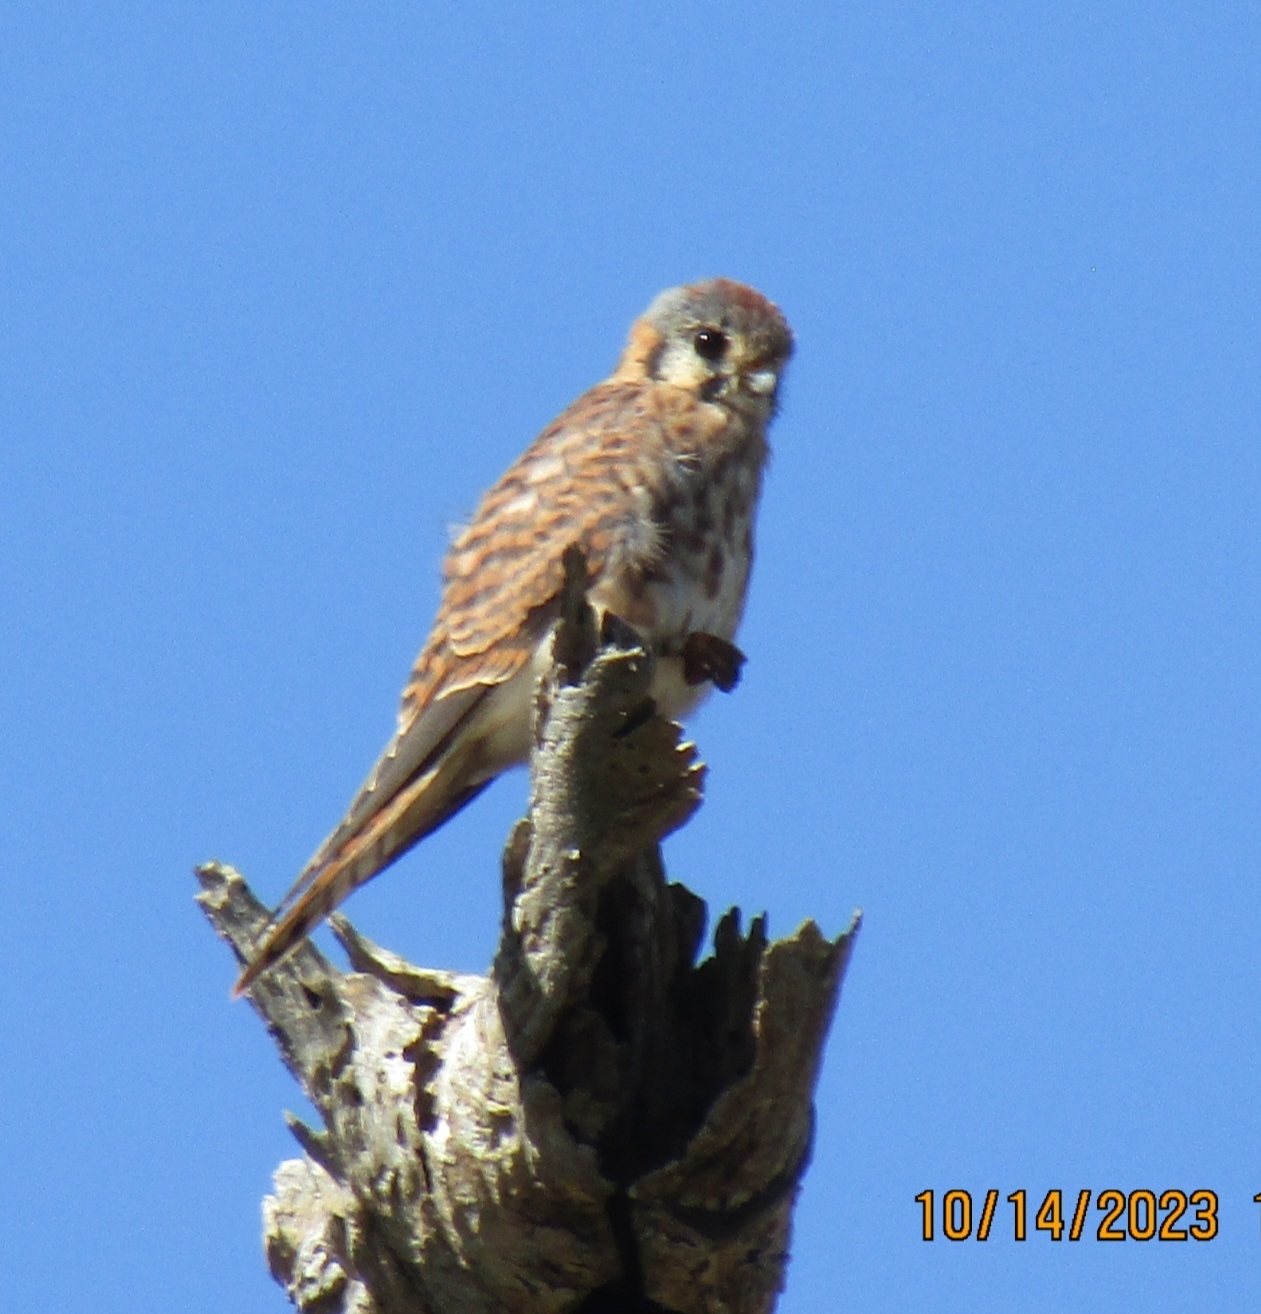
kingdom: Animalia
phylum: Chordata
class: Aves
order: Falconiformes
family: Falconidae
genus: Falco
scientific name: Falco sparverius
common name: American kestrel
